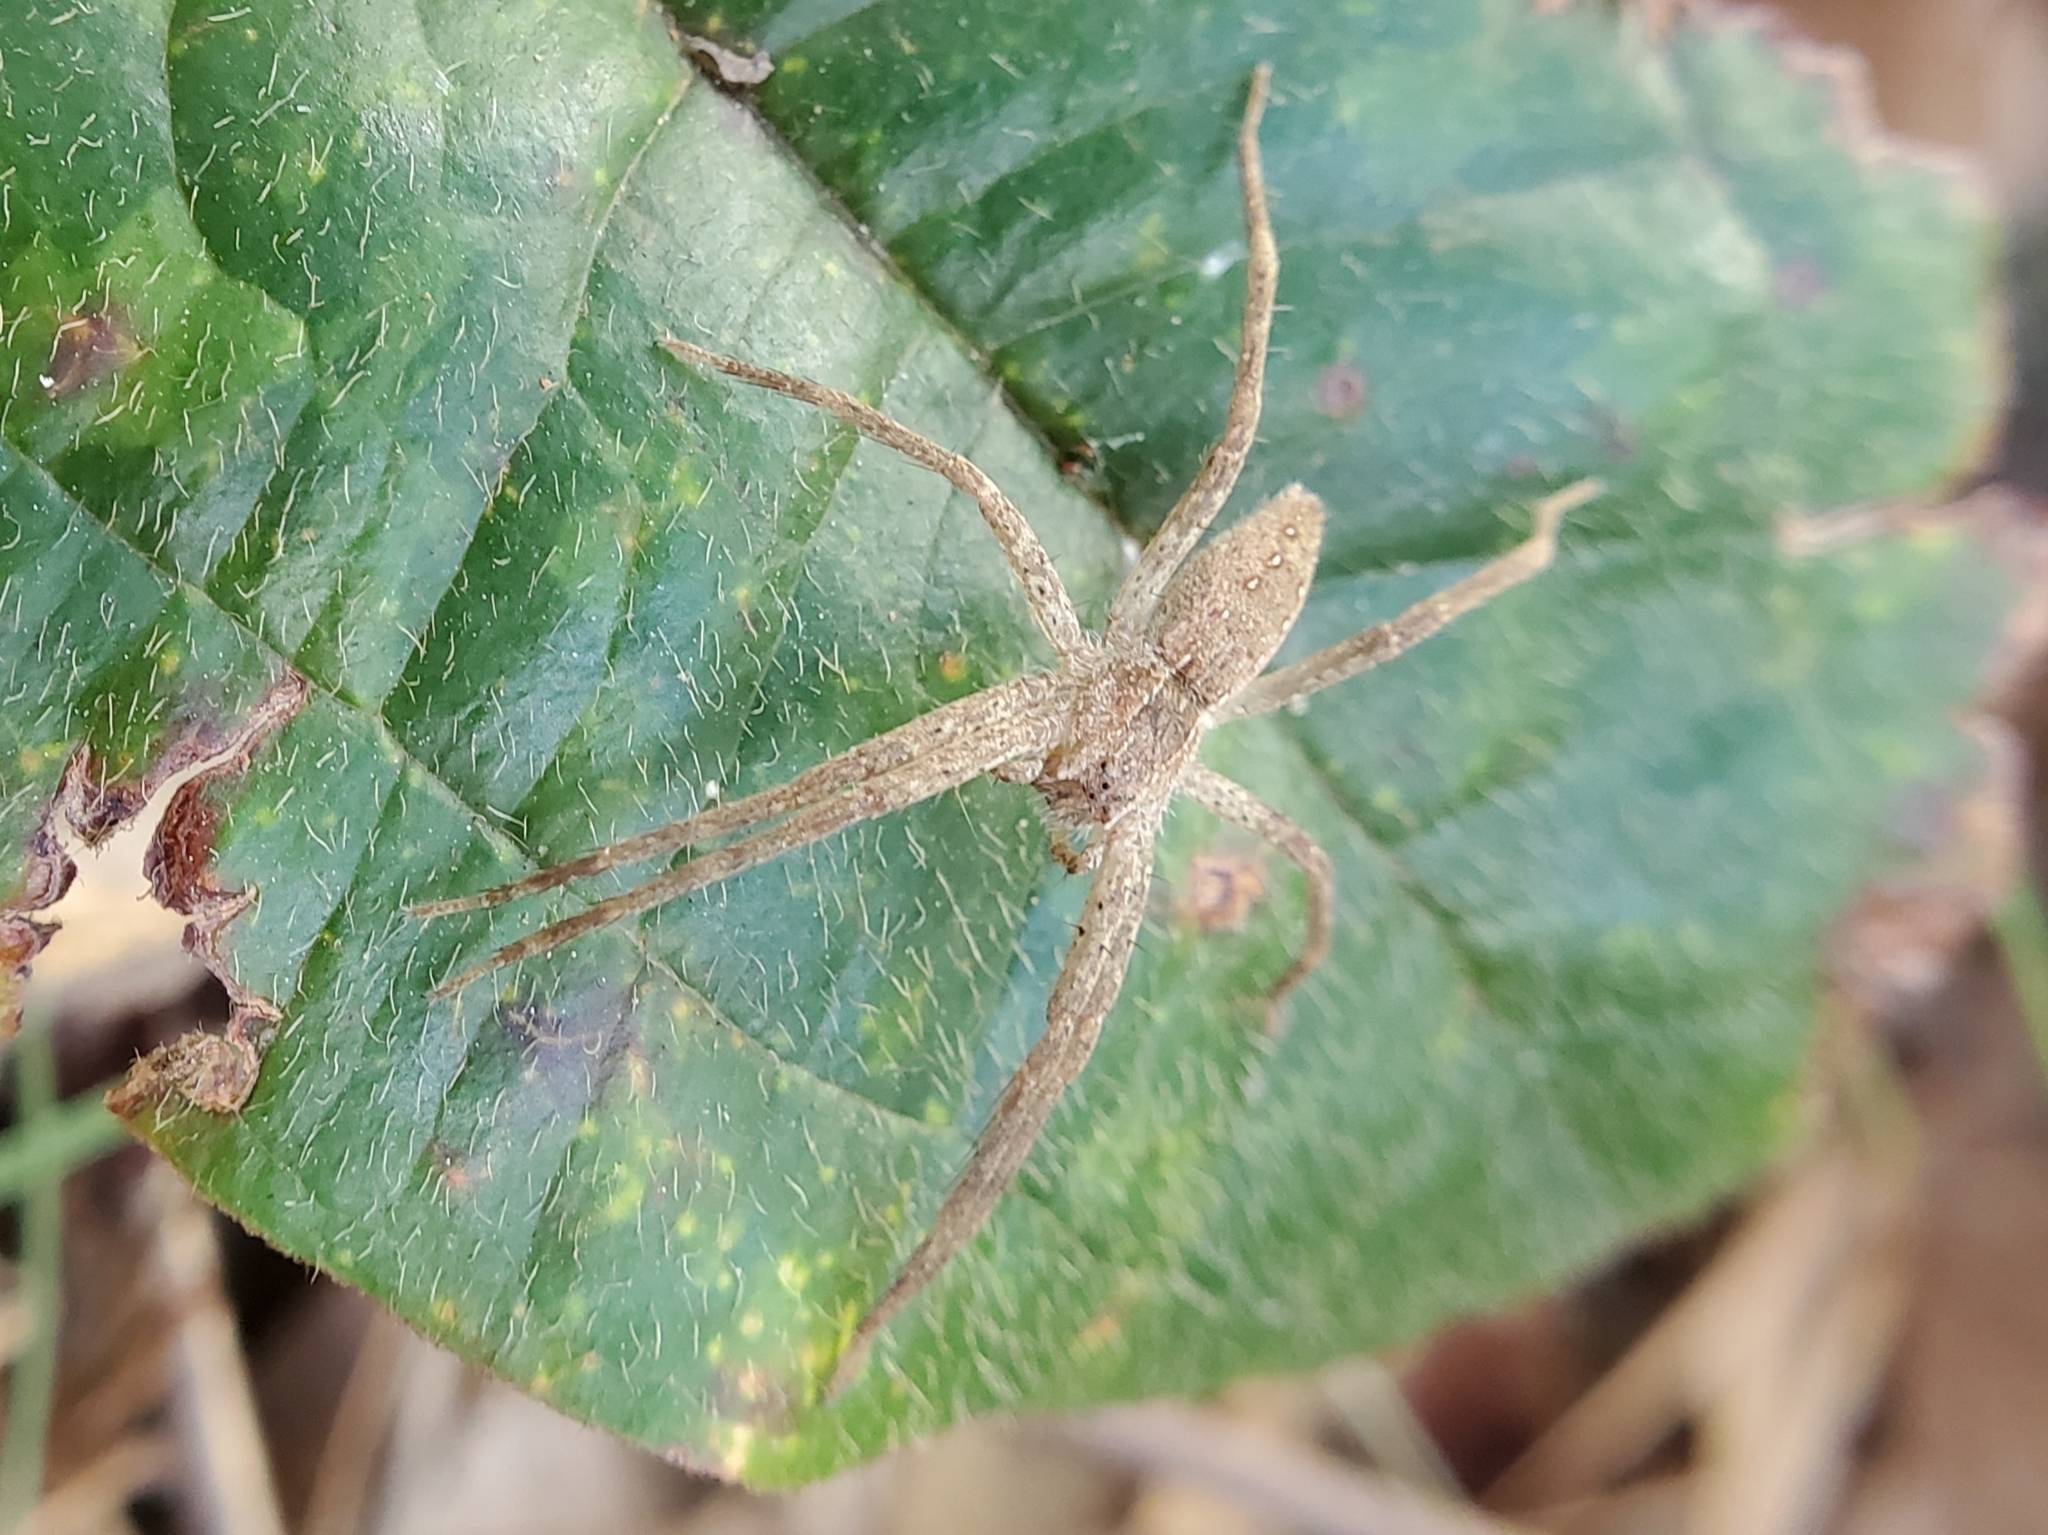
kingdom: Animalia
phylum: Arthropoda
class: Arachnida
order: Araneae
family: Pisauridae
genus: Pisaurina
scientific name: Pisaurina mira
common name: American nursery web spider
